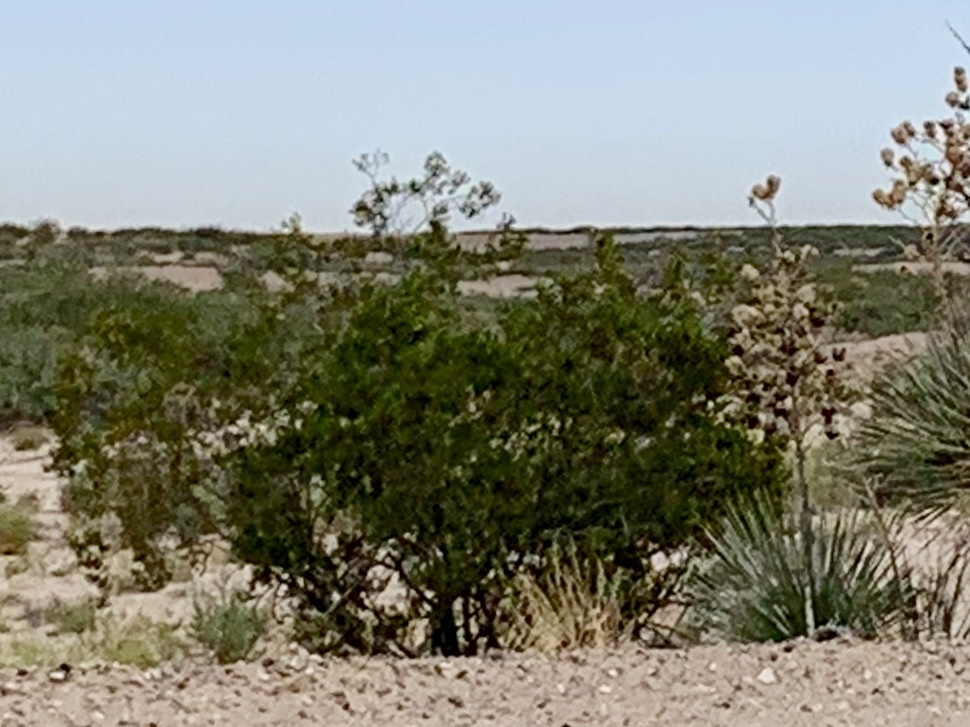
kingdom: Plantae
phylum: Tracheophyta
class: Magnoliopsida
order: Zygophyllales
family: Zygophyllaceae
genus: Larrea
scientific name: Larrea tridentata
